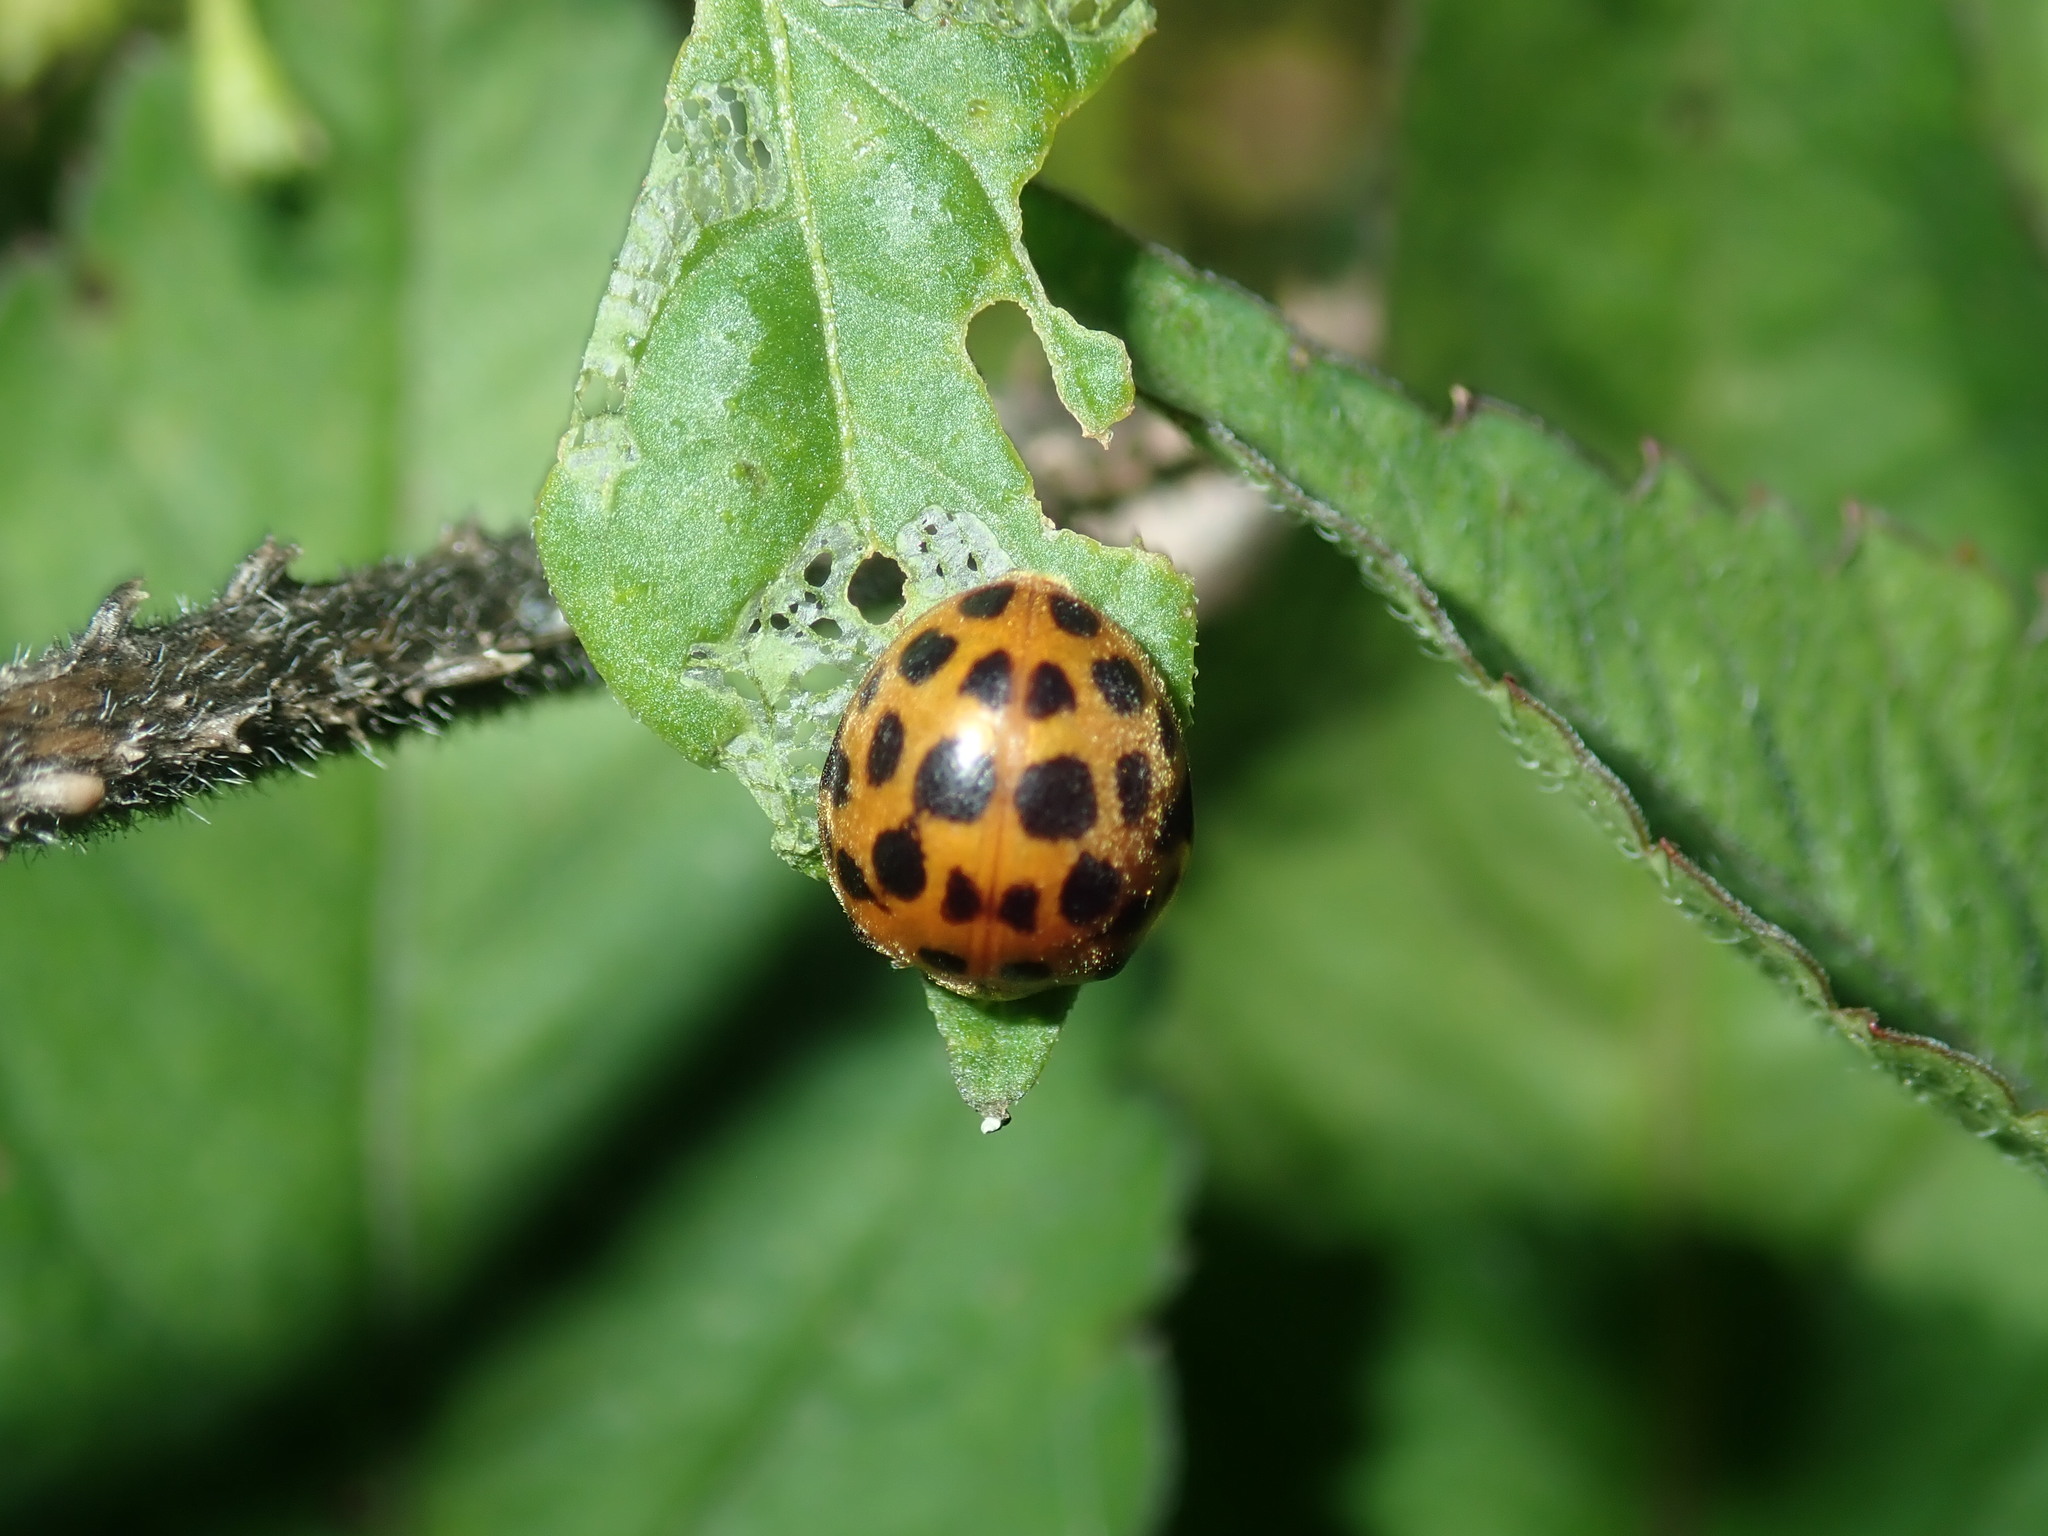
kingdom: Animalia
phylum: Arthropoda
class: Insecta
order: Coleoptera
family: Coccinellidae
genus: Henosepilachna
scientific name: Henosepilachna vigintioctopunctata
